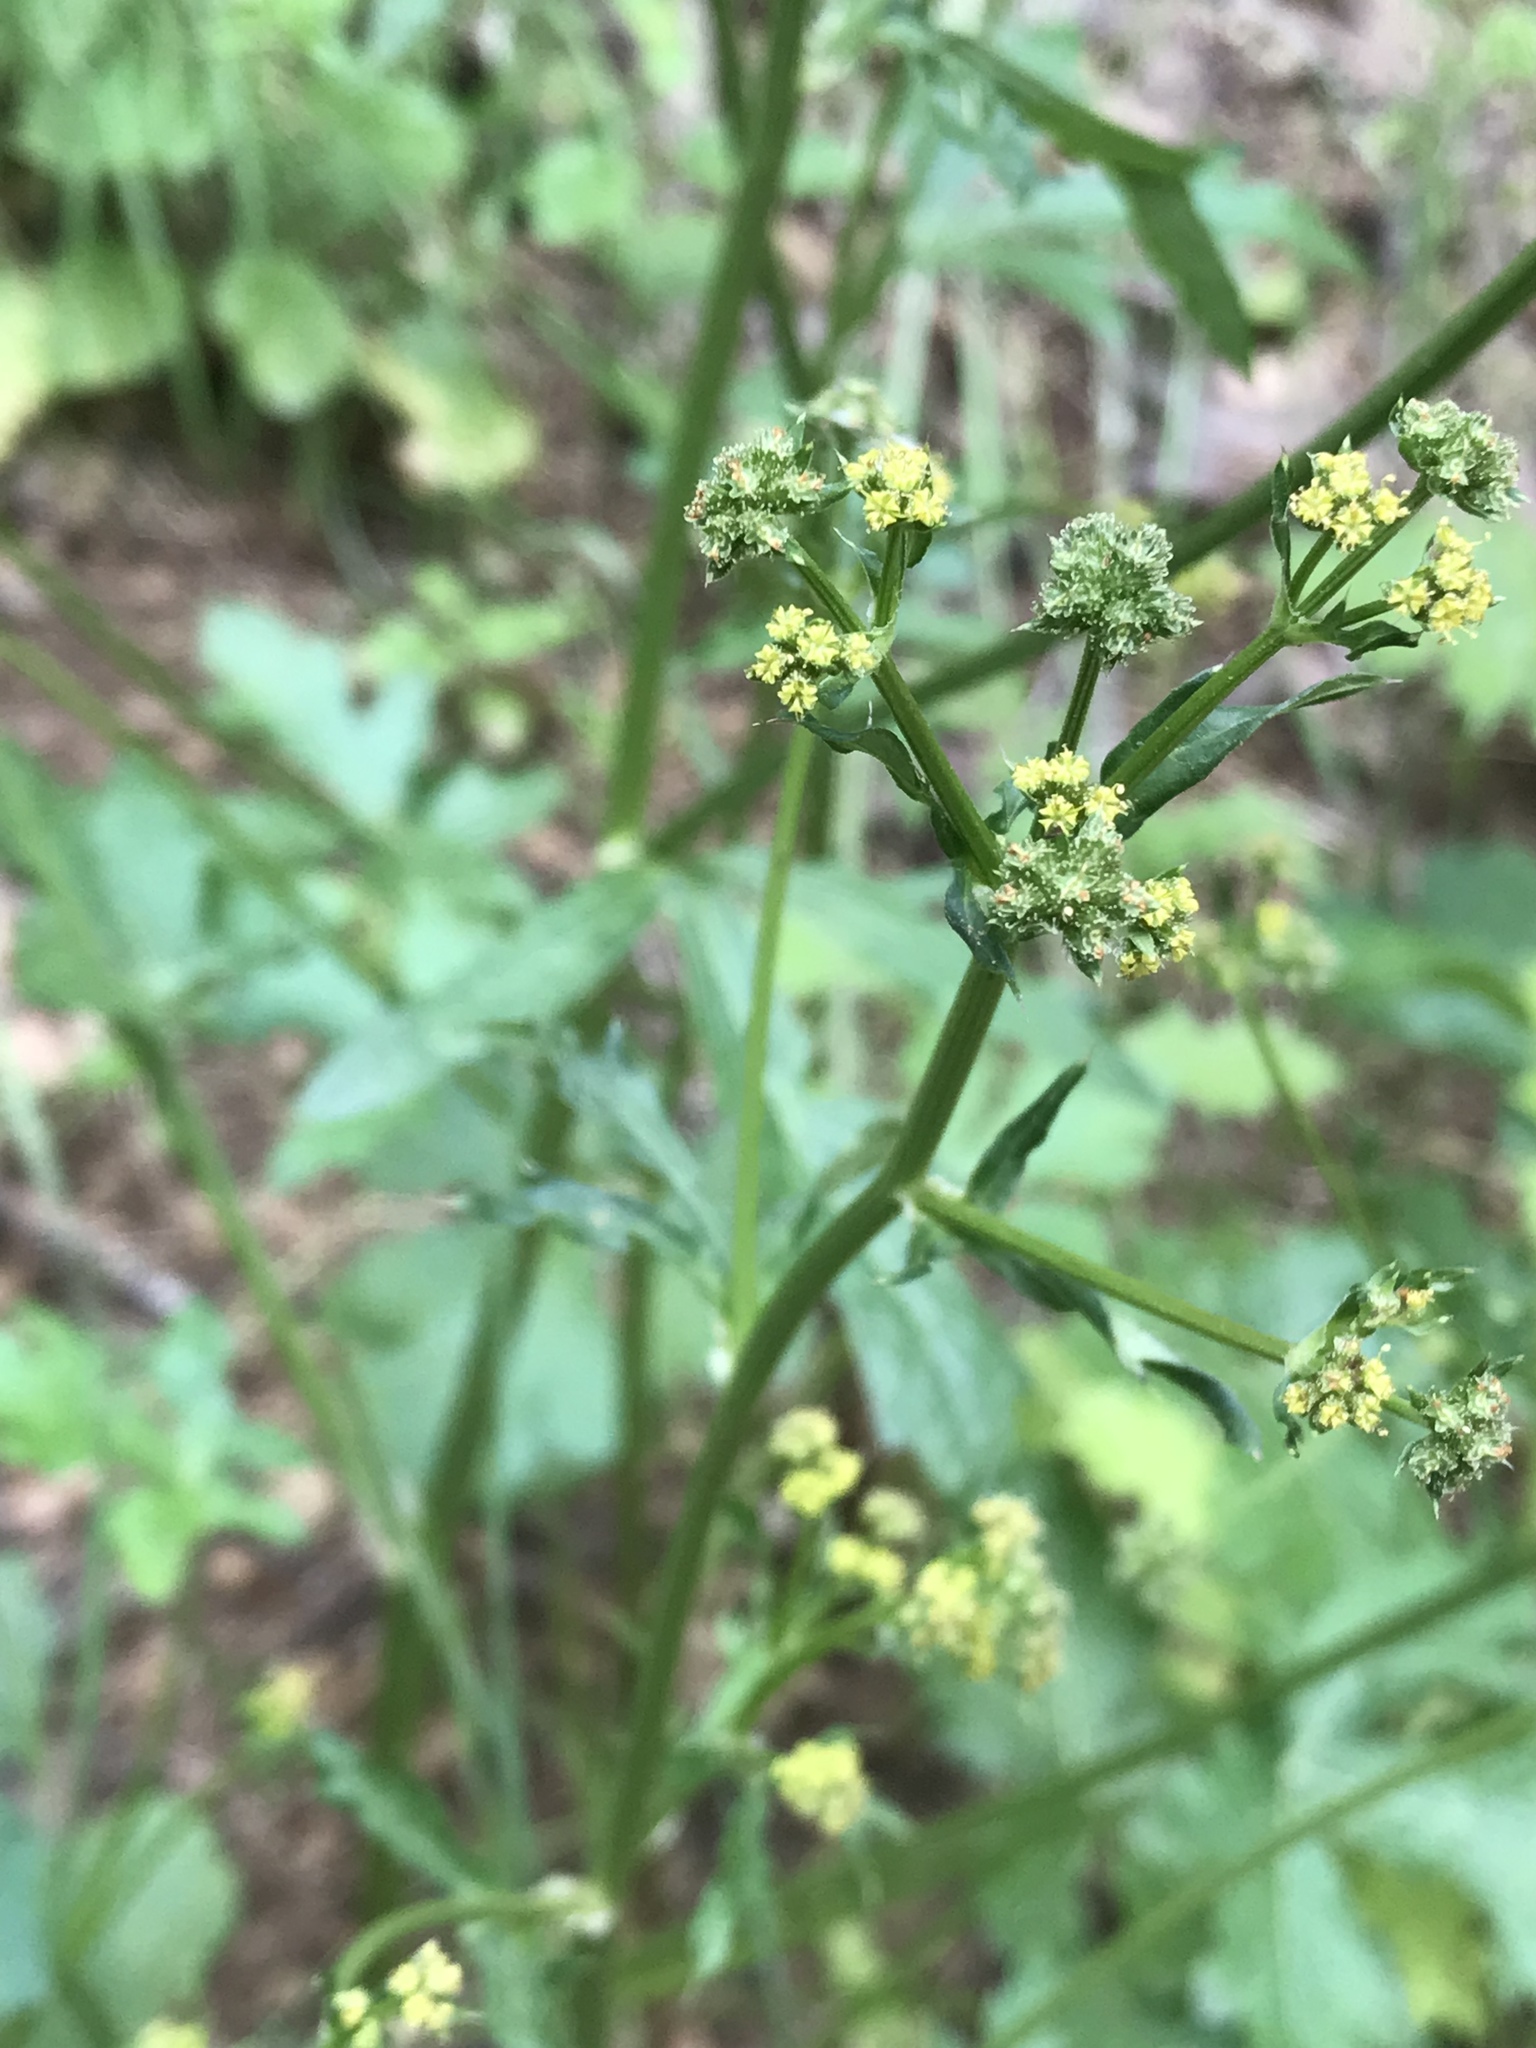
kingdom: Plantae
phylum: Tracheophyta
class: Magnoliopsida
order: Apiales
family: Apiaceae
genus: Sanicula
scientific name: Sanicula crassicaulis
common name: Western snakeroot
